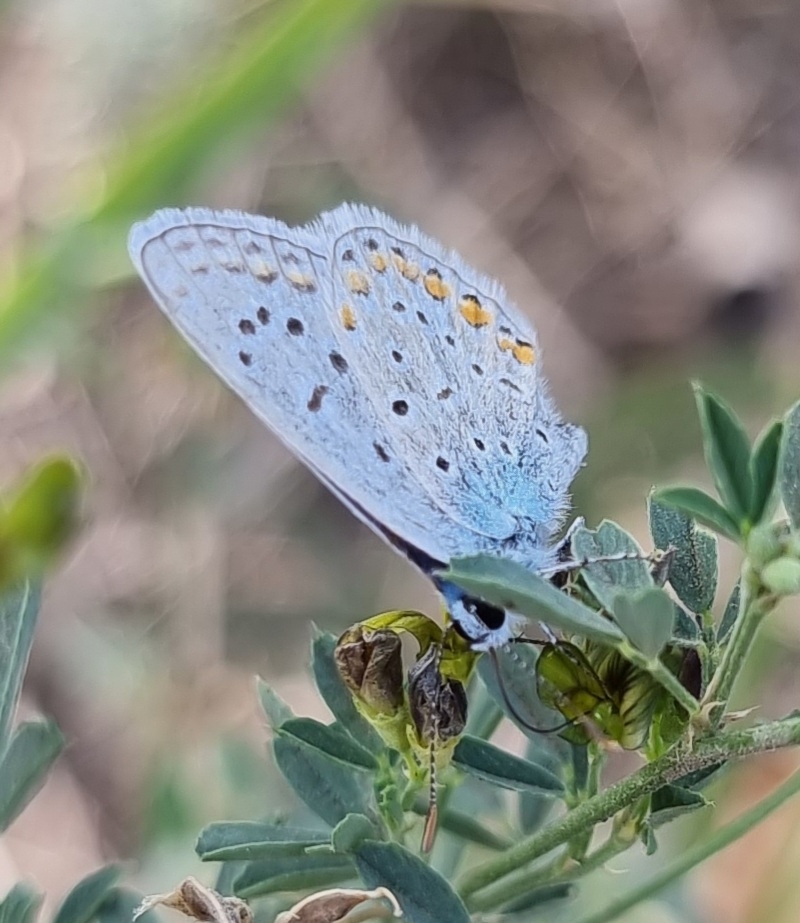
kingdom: Animalia
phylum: Arthropoda
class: Insecta
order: Lepidoptera
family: Lycaenidae
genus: Polyommatus
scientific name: Polyommatus icarus
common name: Common blue
